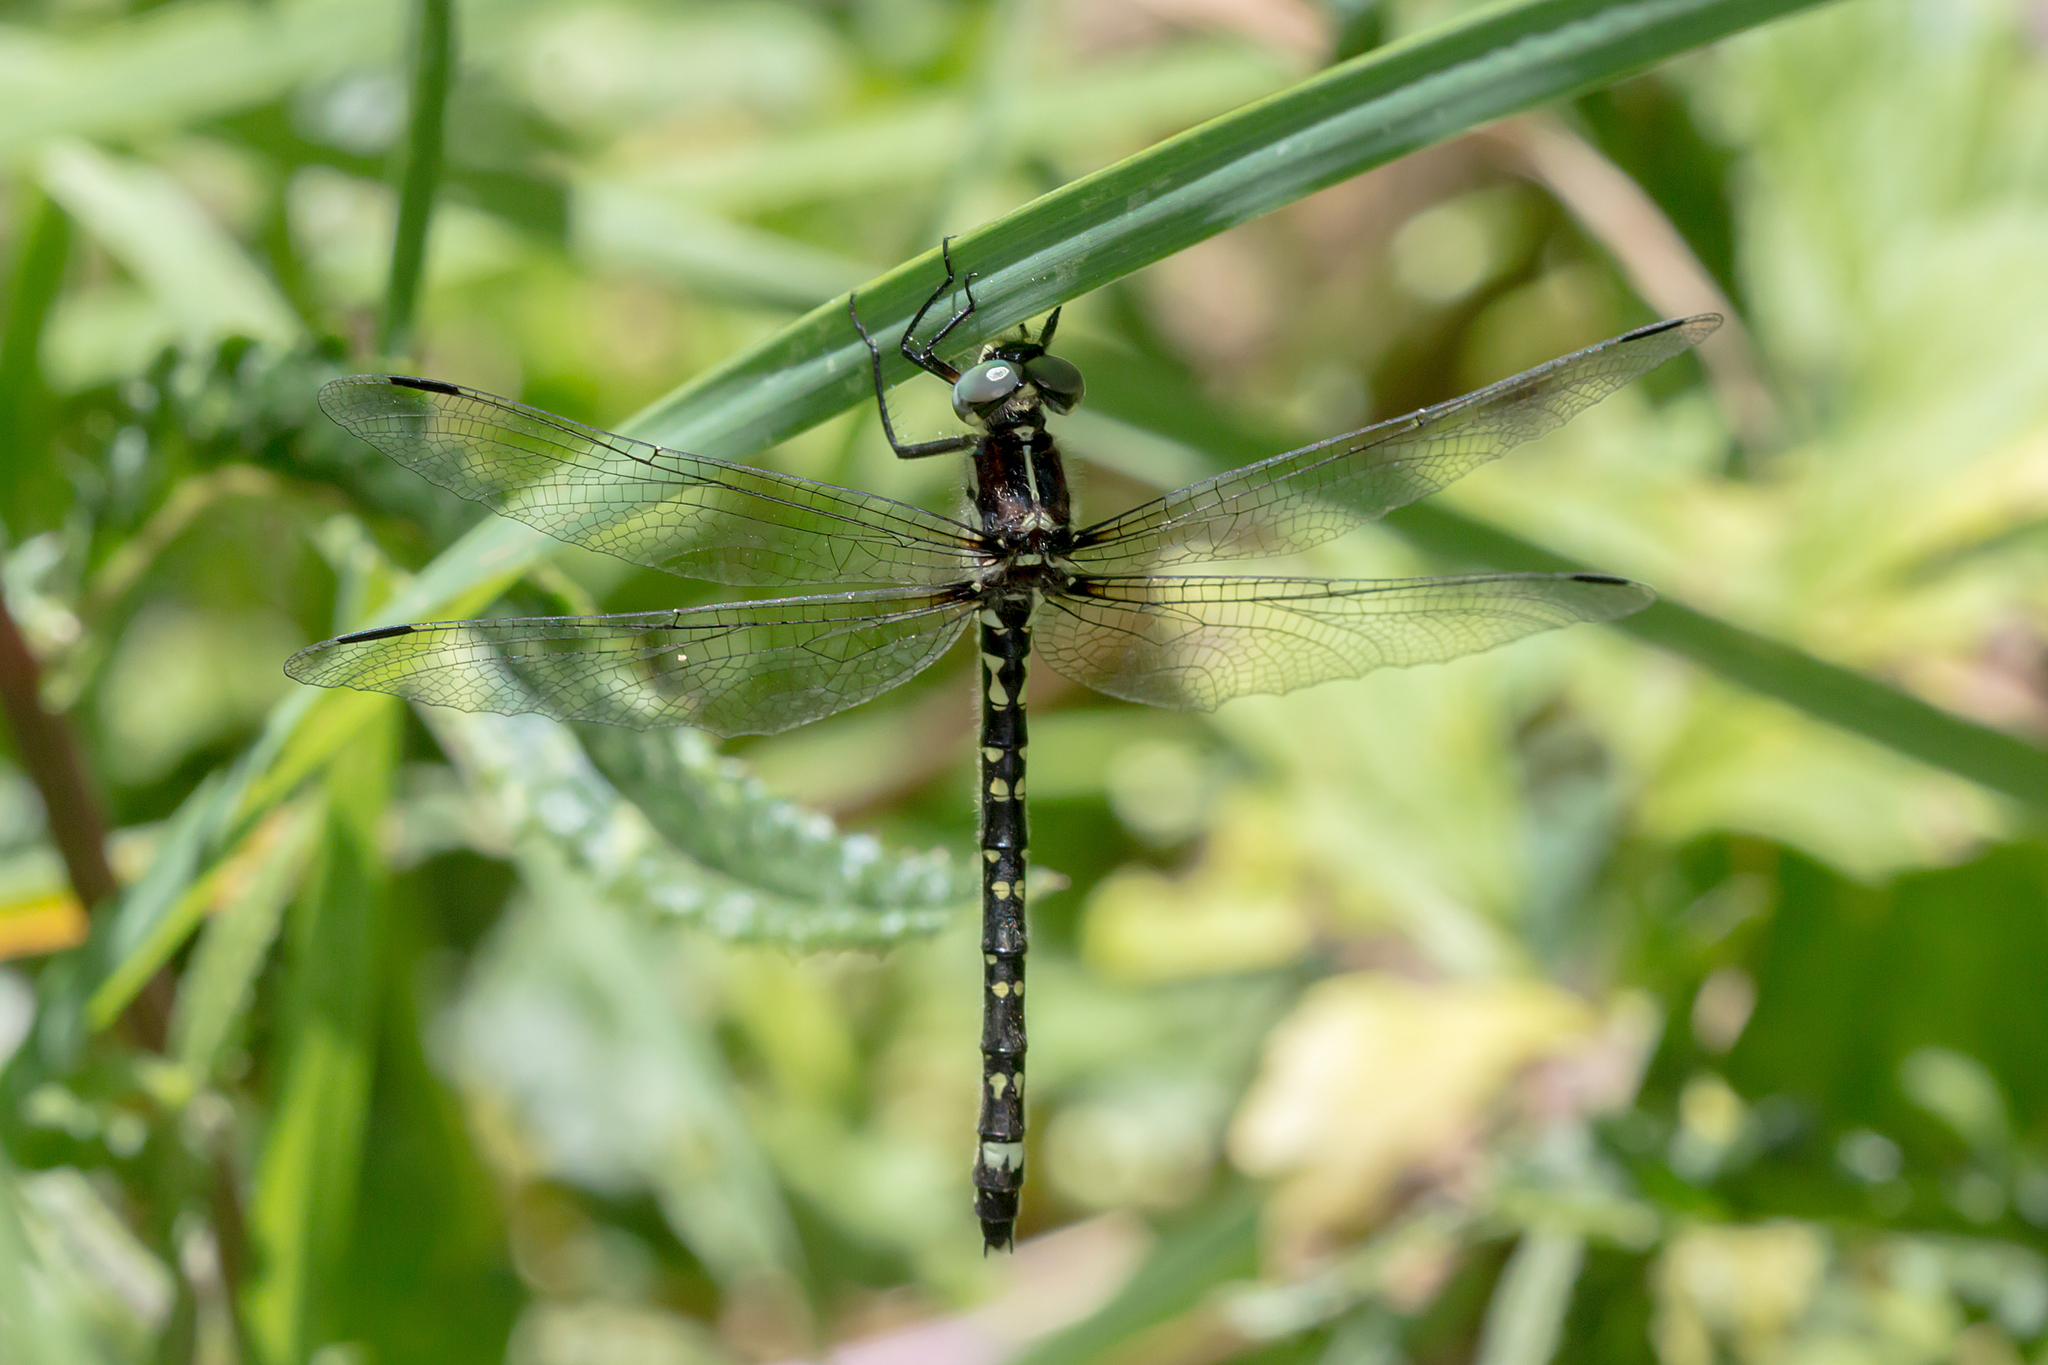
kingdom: Animalia
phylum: Arthropoda
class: Insecta
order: Odonata
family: Synthemistidae
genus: Eusynthemis
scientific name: Eusynthemis brevistyla
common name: Small tigertail
